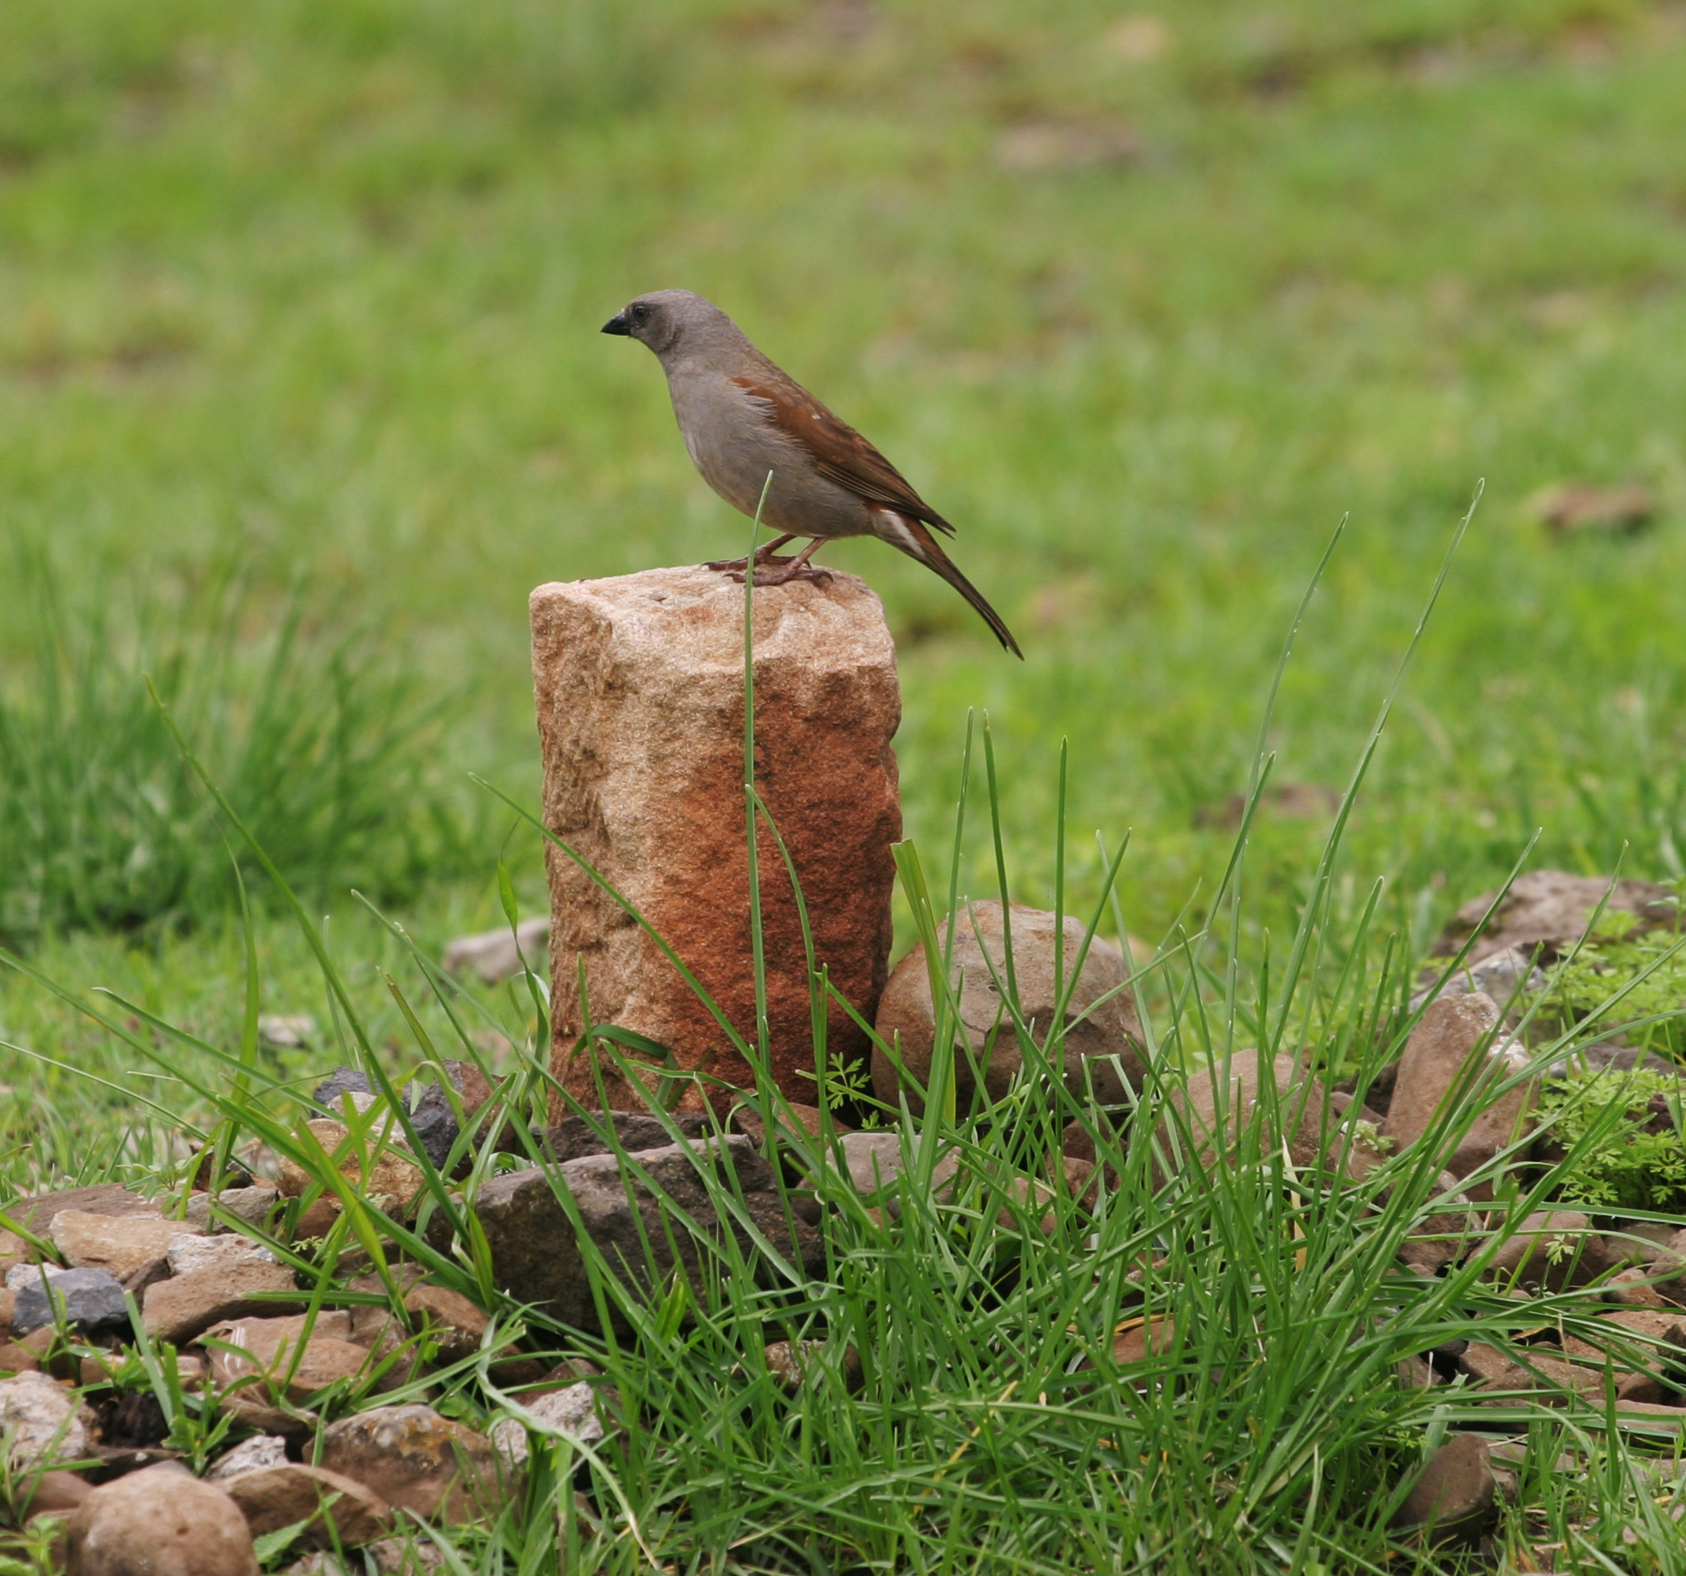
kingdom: Animalia
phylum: Chordata
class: Aves
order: Passeriformes
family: Passeridae
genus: Passer
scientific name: Passer swainsonii
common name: Swainson's sparrow
